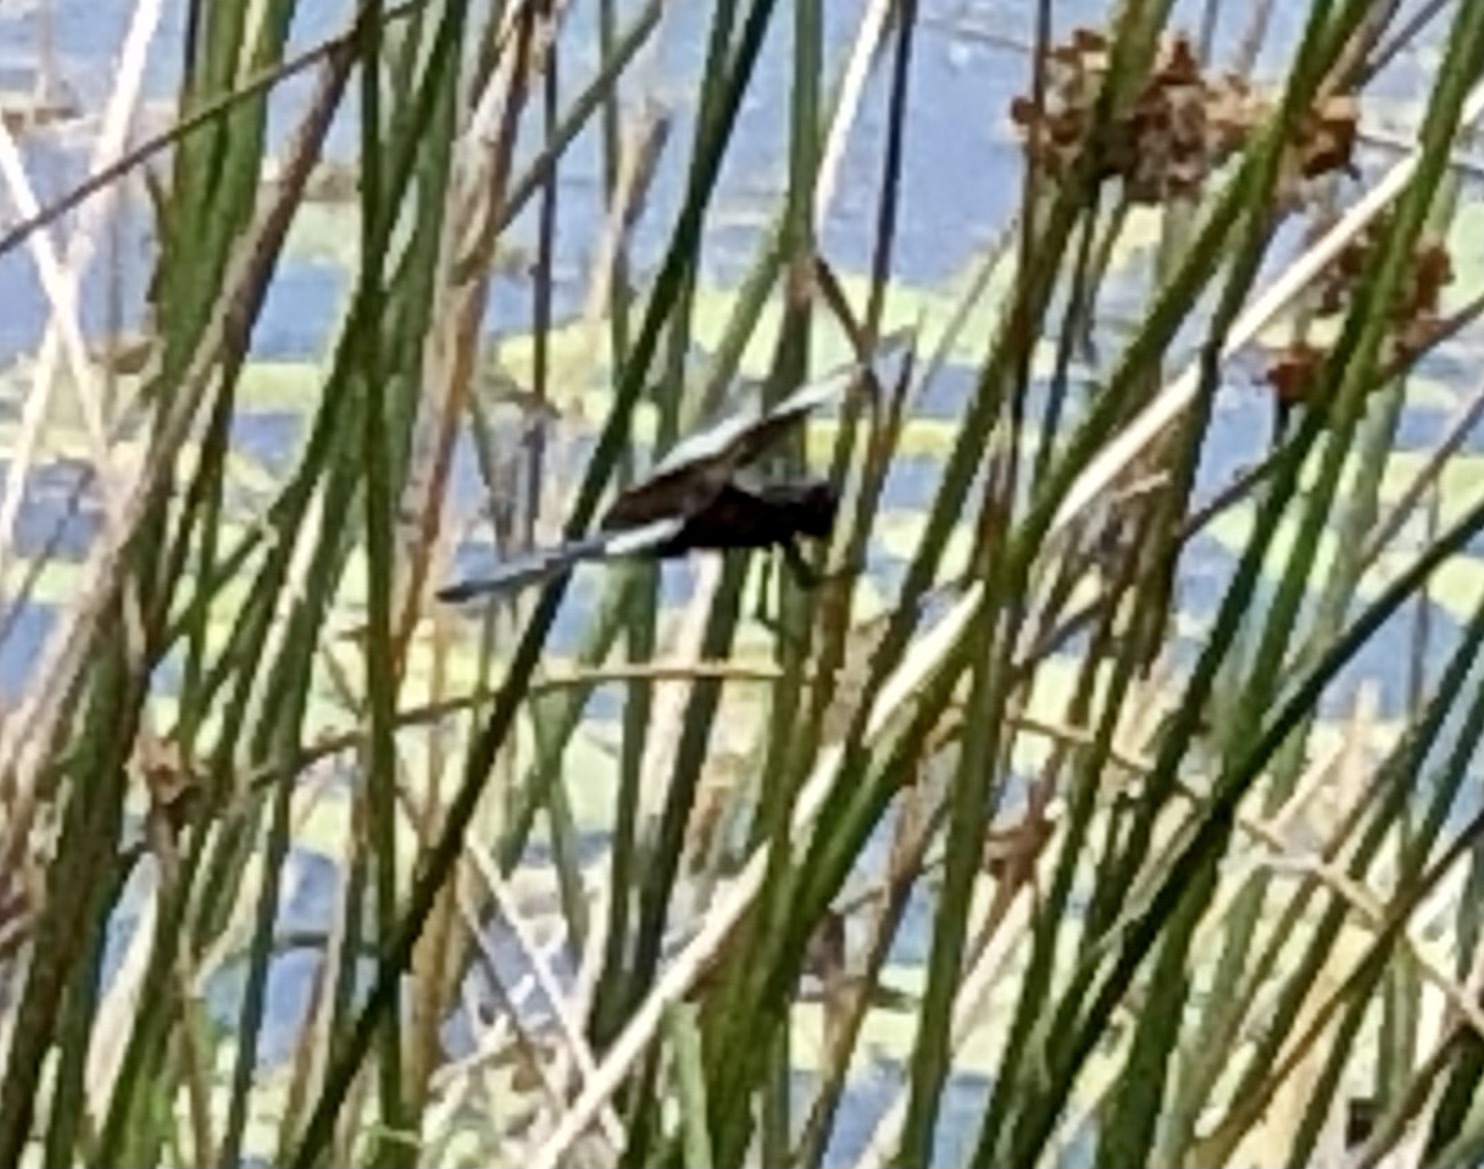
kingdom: Animalia
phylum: Arthropoda
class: Insecta
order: Odonata
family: Libellulidae
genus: Libellula
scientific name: Libellula luctuosa
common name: Widow skimmer
